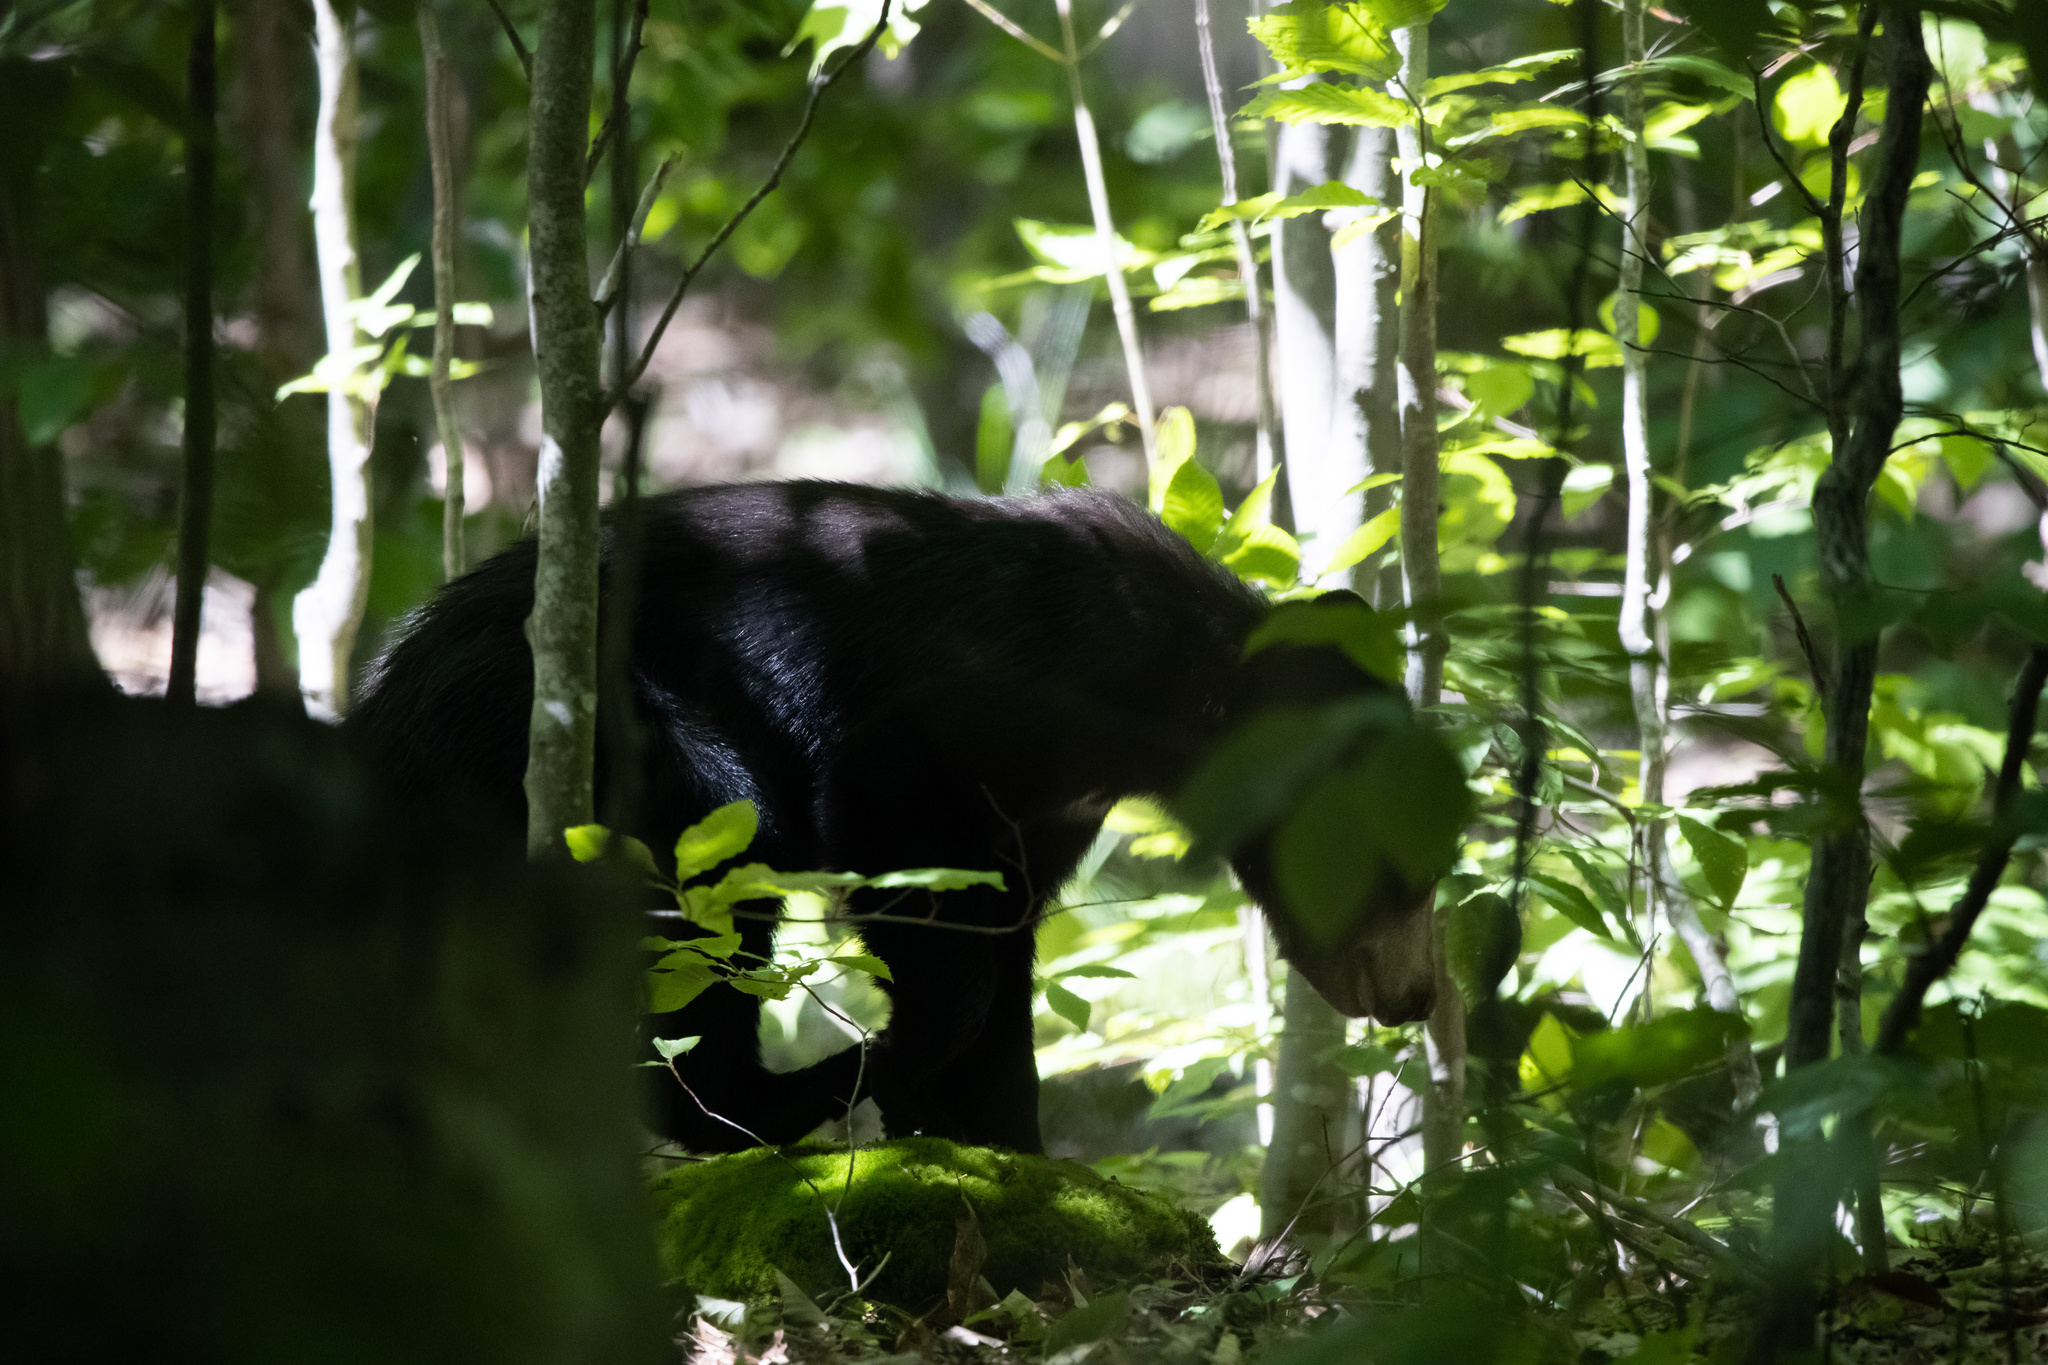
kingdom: Animalia
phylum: Chordata
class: Mammalia
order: Carnivora
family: Ursidae
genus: Ursus
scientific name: Ursus americanus
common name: American black bear
